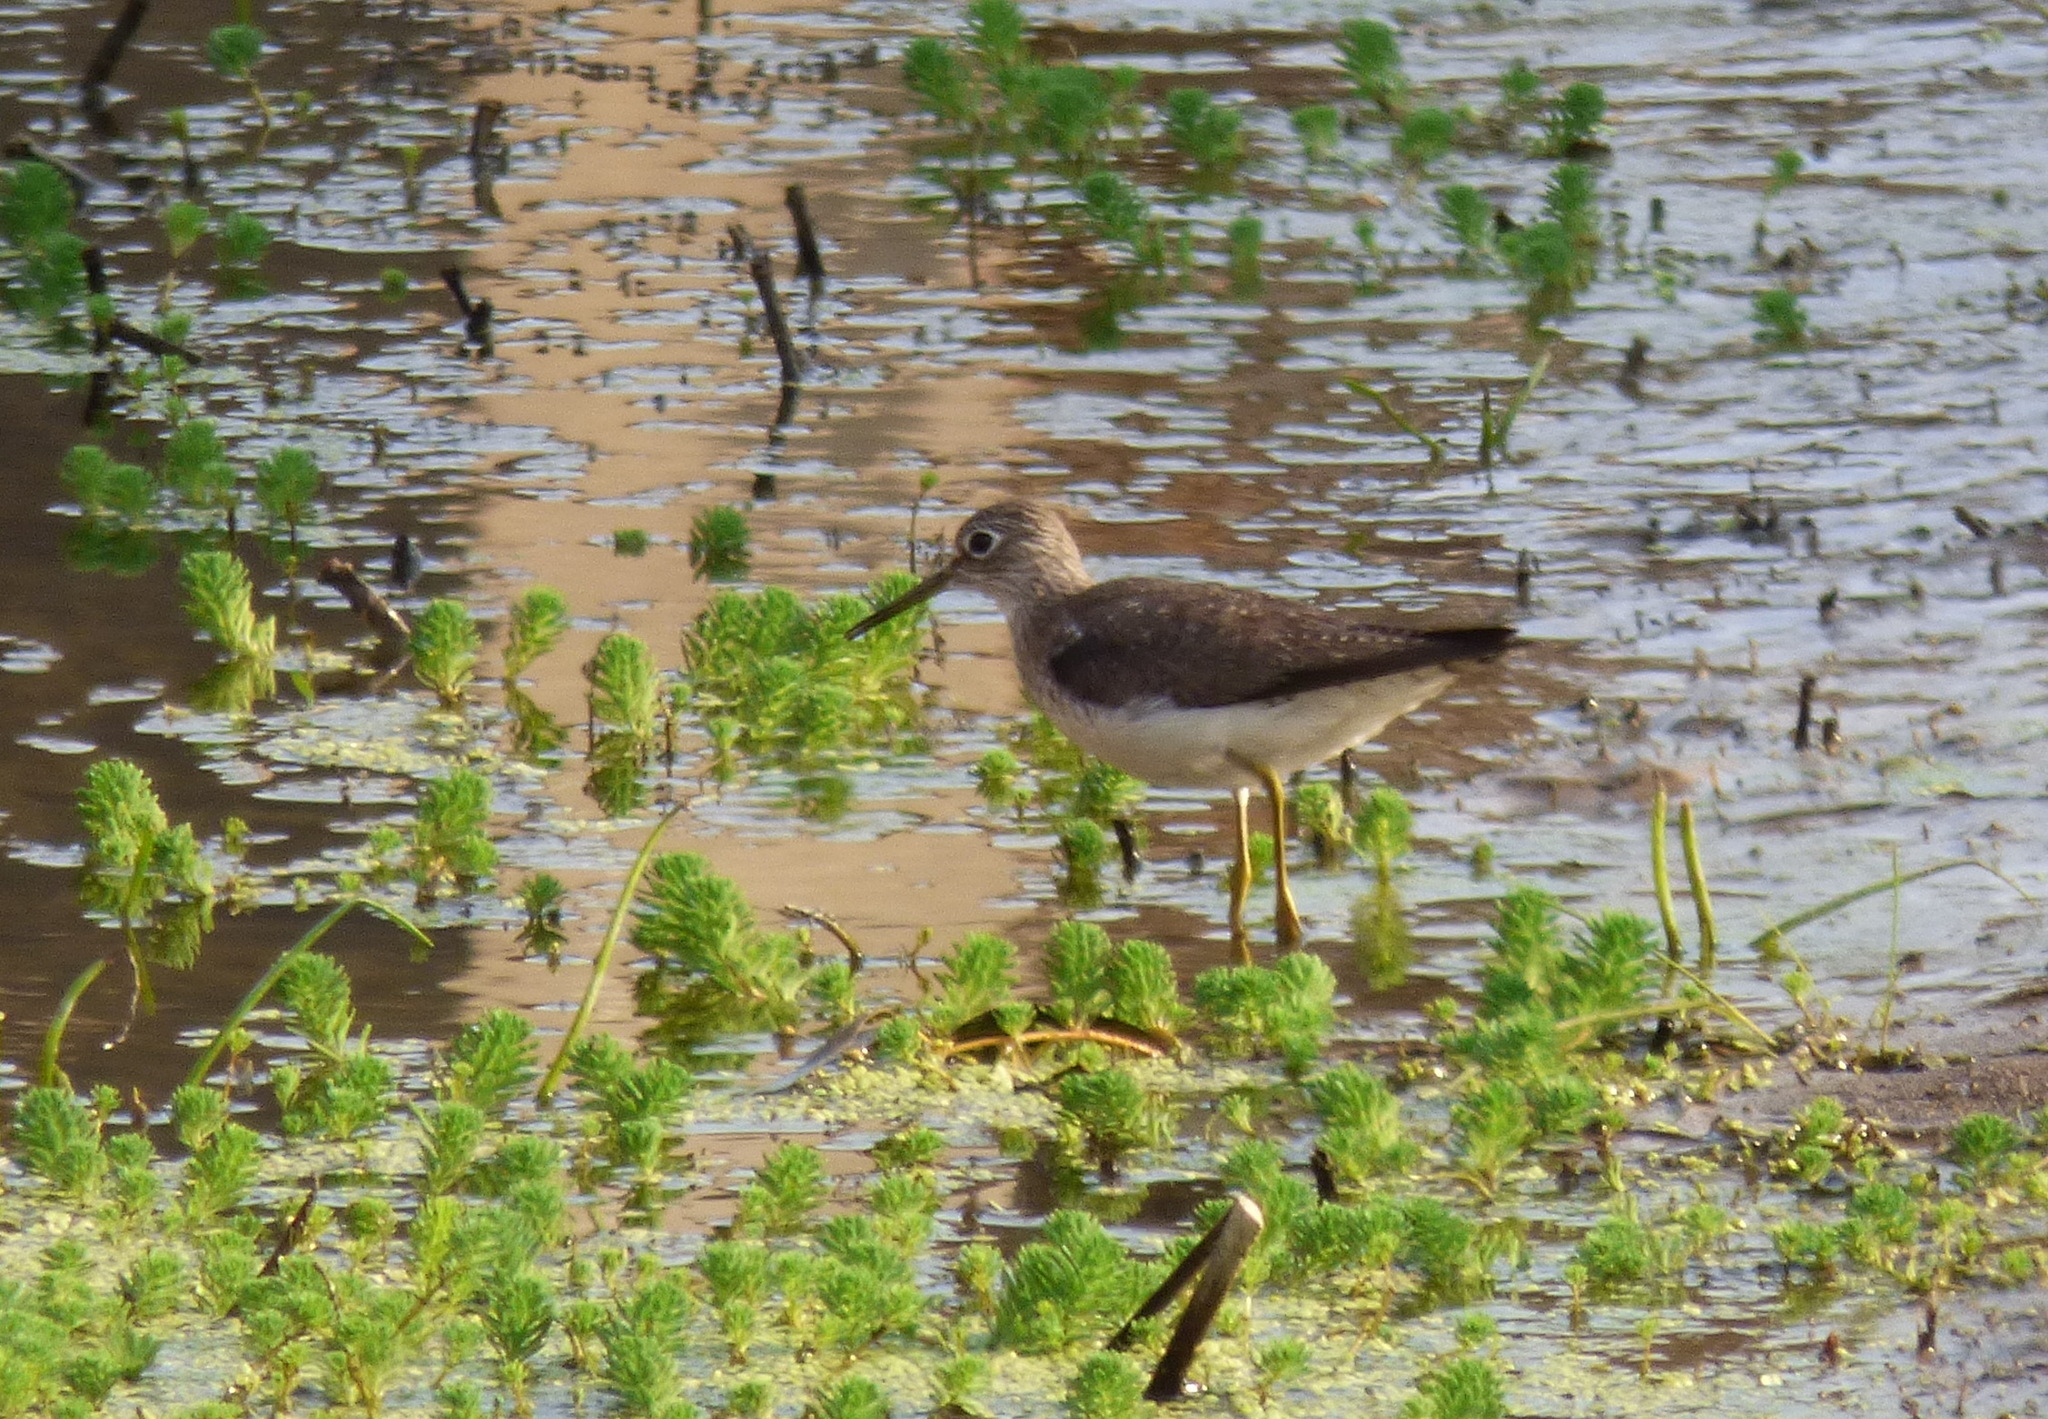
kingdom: Animalia
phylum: Chordata
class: Aves
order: Charadriiformes
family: Scolopacidae
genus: Tringa
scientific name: Tringa solitaria
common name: Solitary sandpiper
